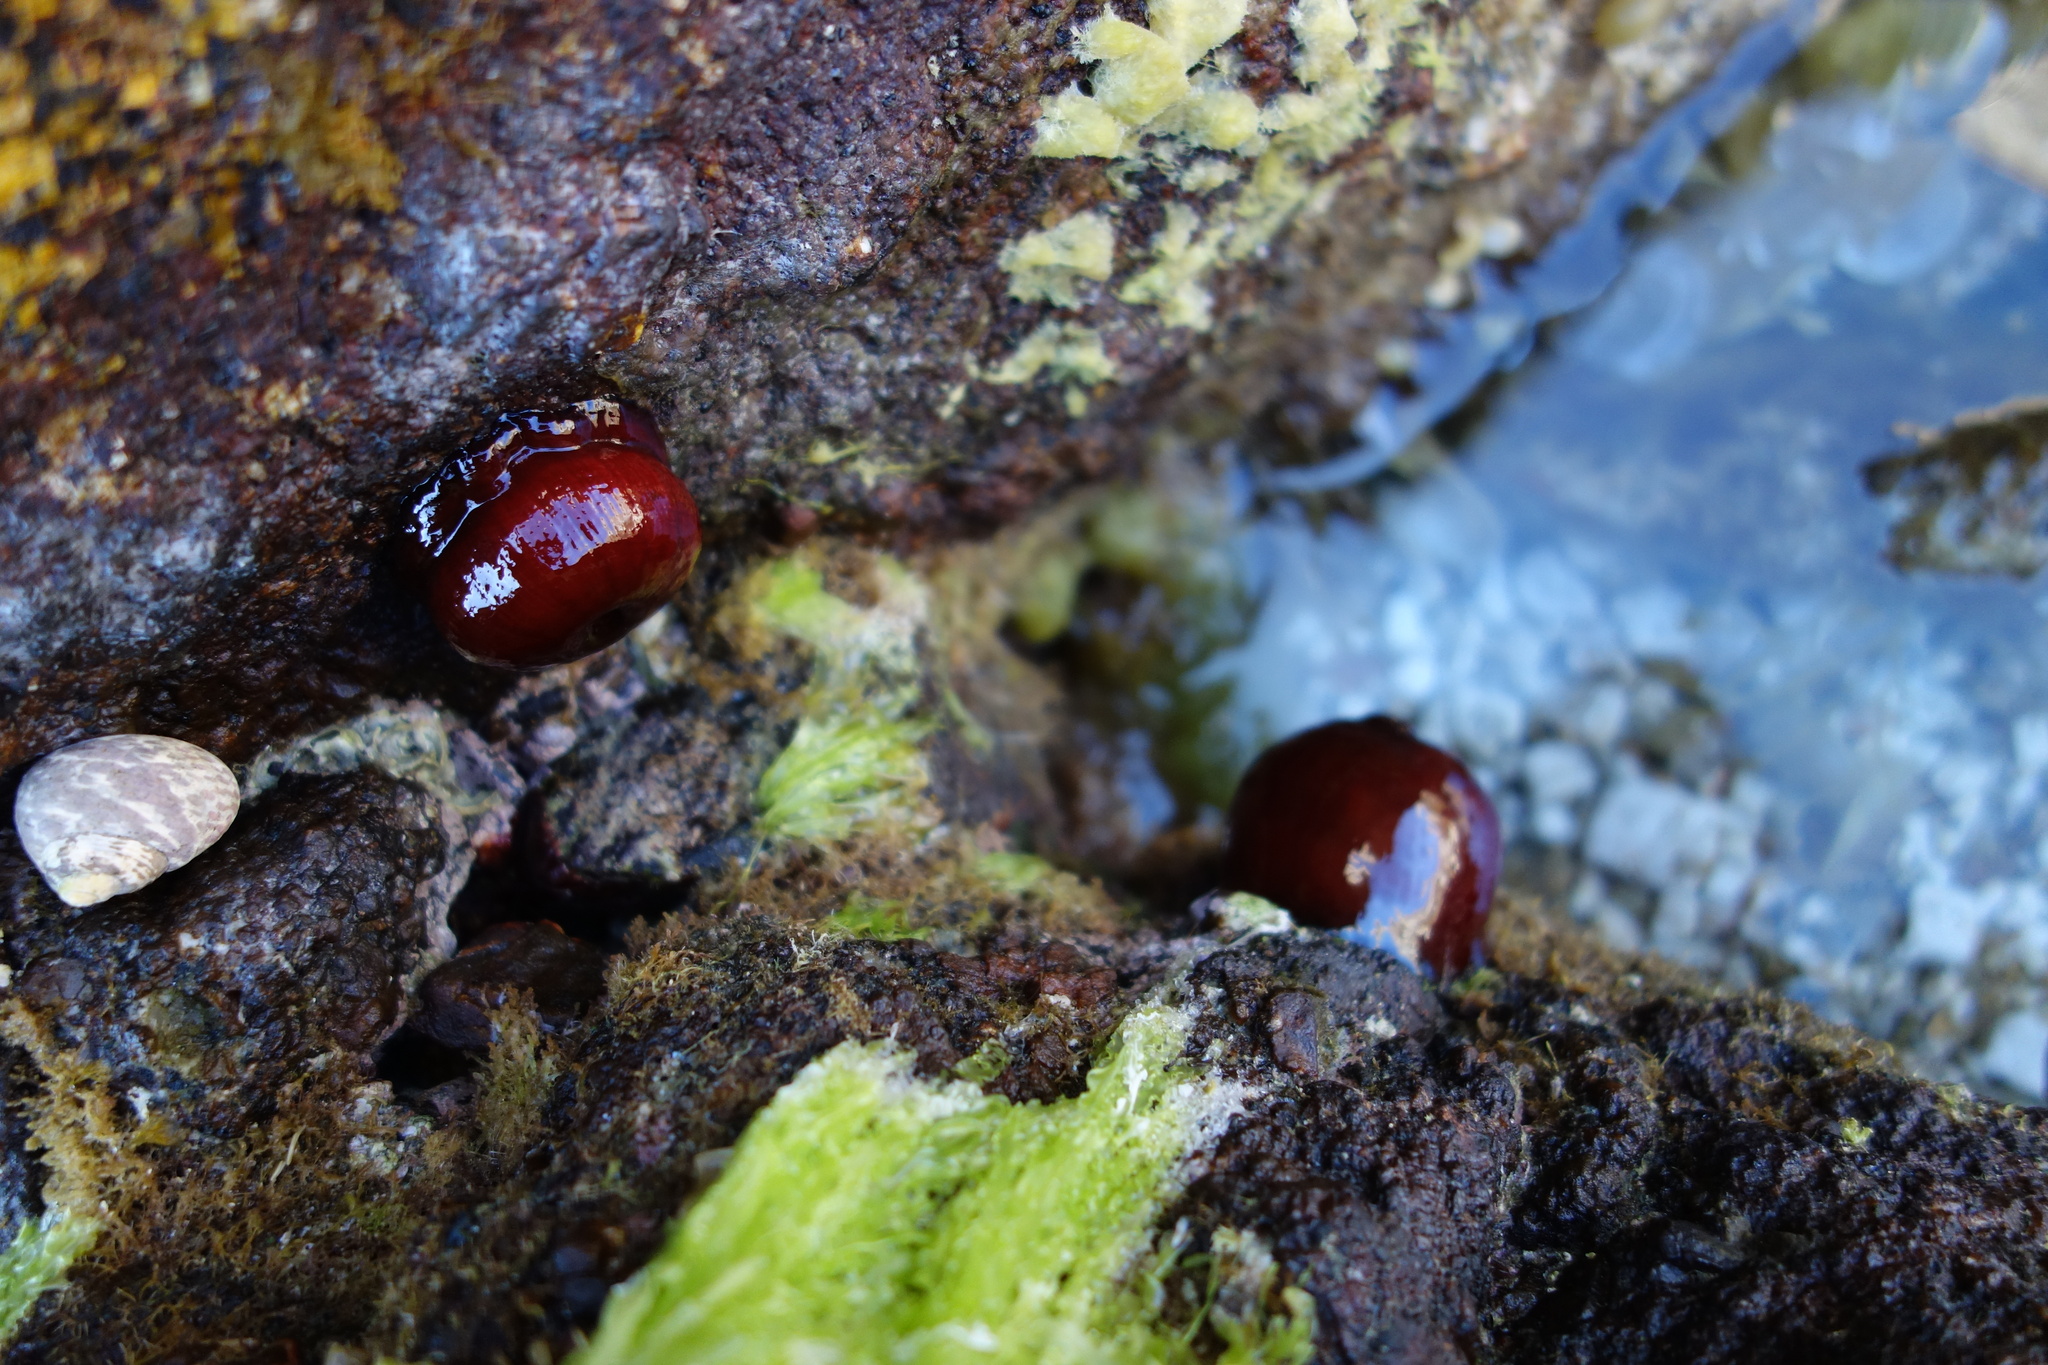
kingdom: Animalia
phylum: Cnidaria
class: Anthozoa
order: Actiniaria
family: Actiniidae
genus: Actinia
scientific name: Actinia mediterranea
